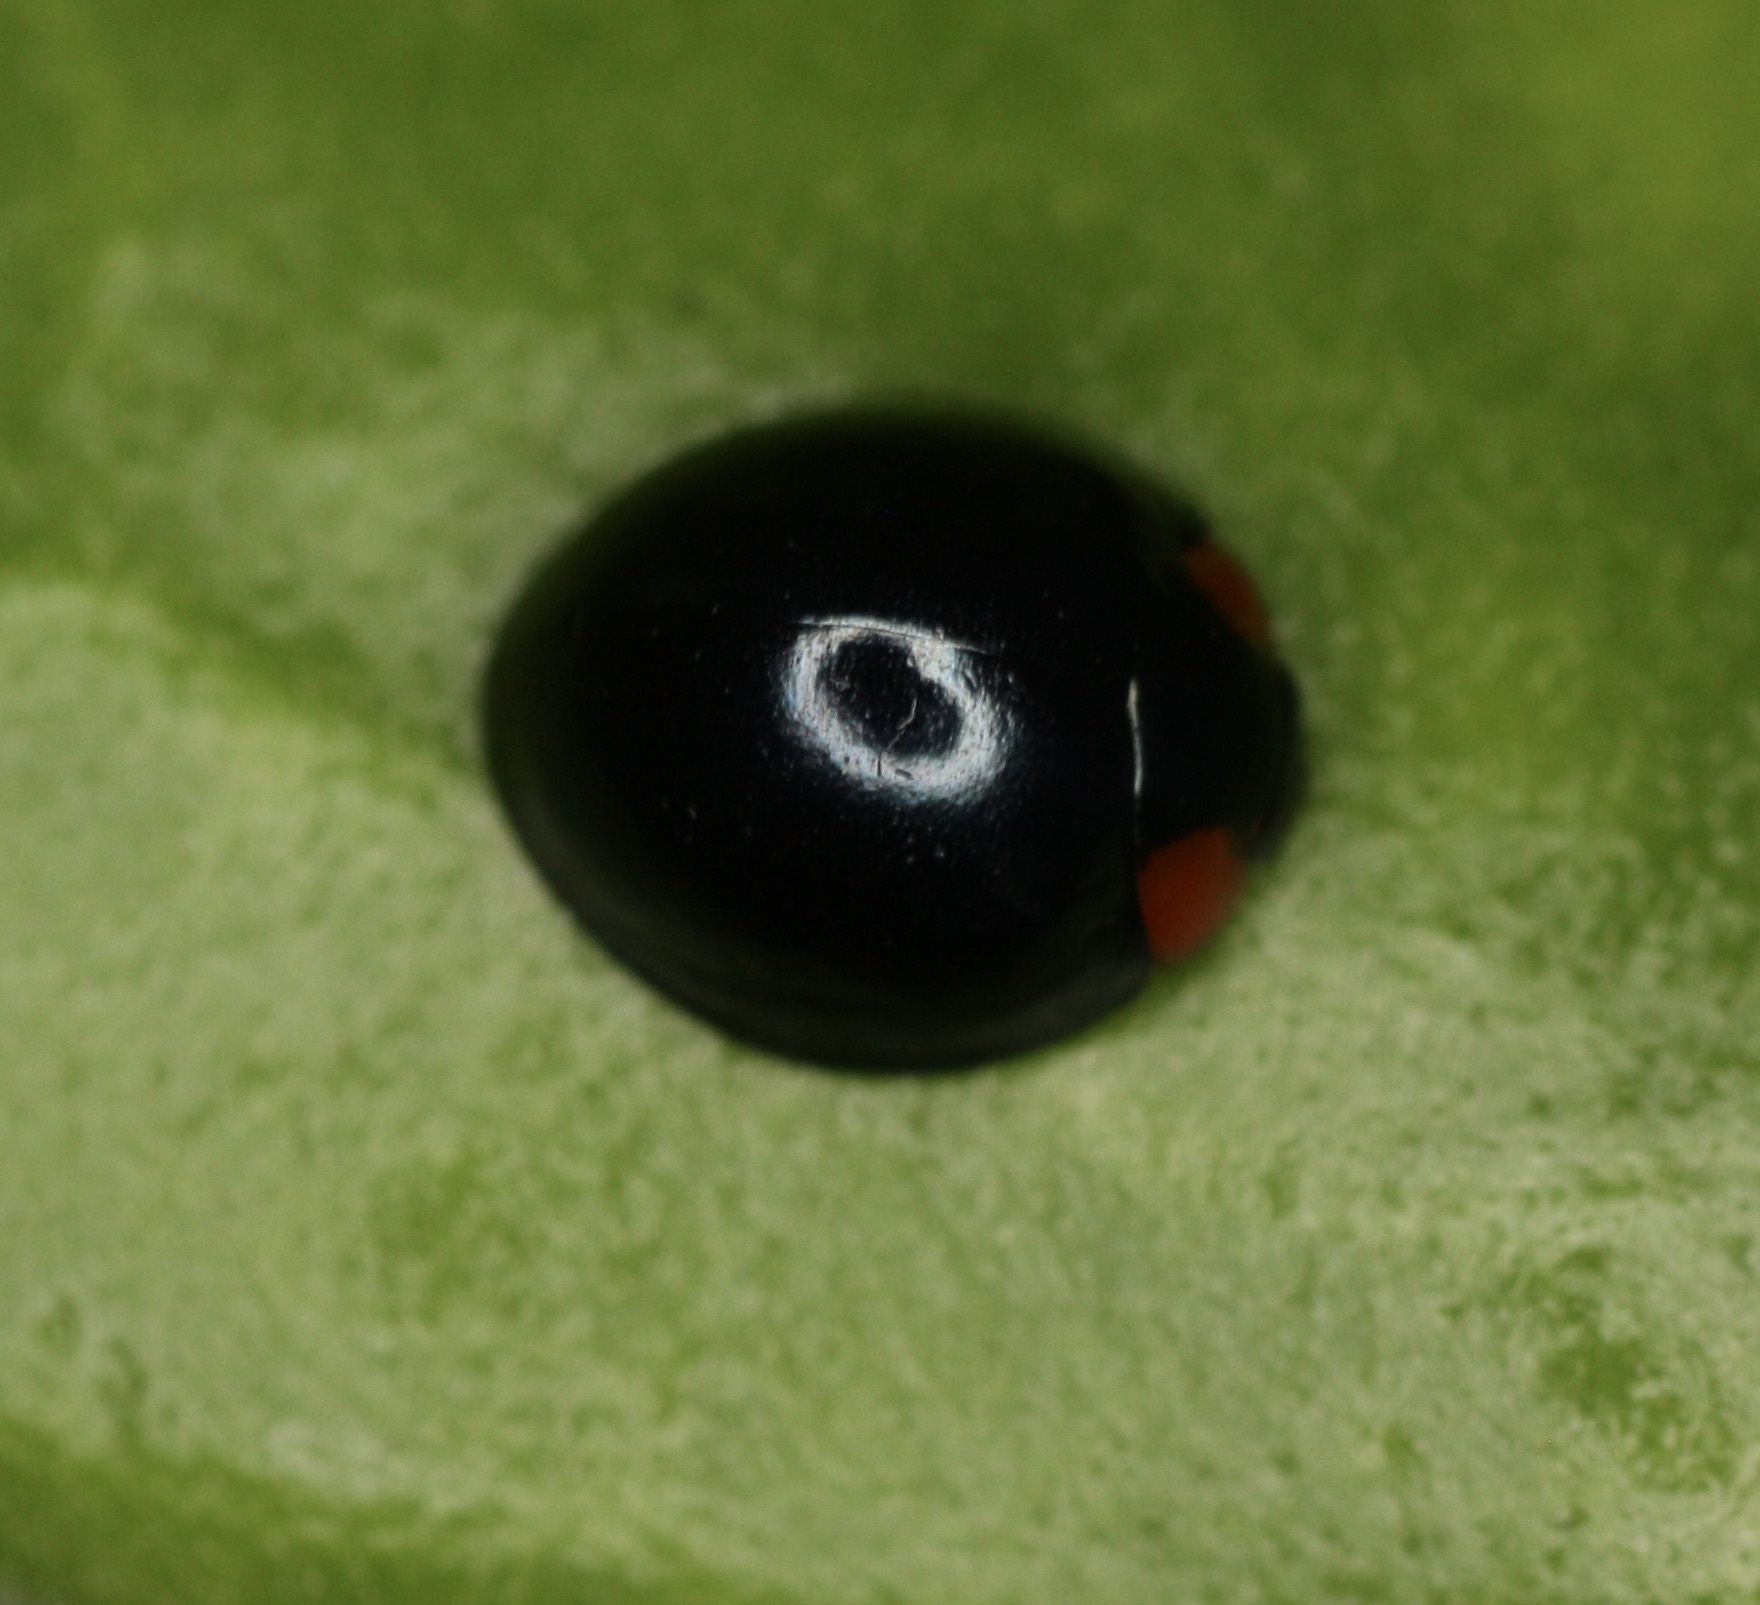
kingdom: Animalia
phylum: Arthropoda
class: Insecta
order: Coleoptera
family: Coccinellidae
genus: Curinus
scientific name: Curinus coeruleus
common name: Ladybird beetle
